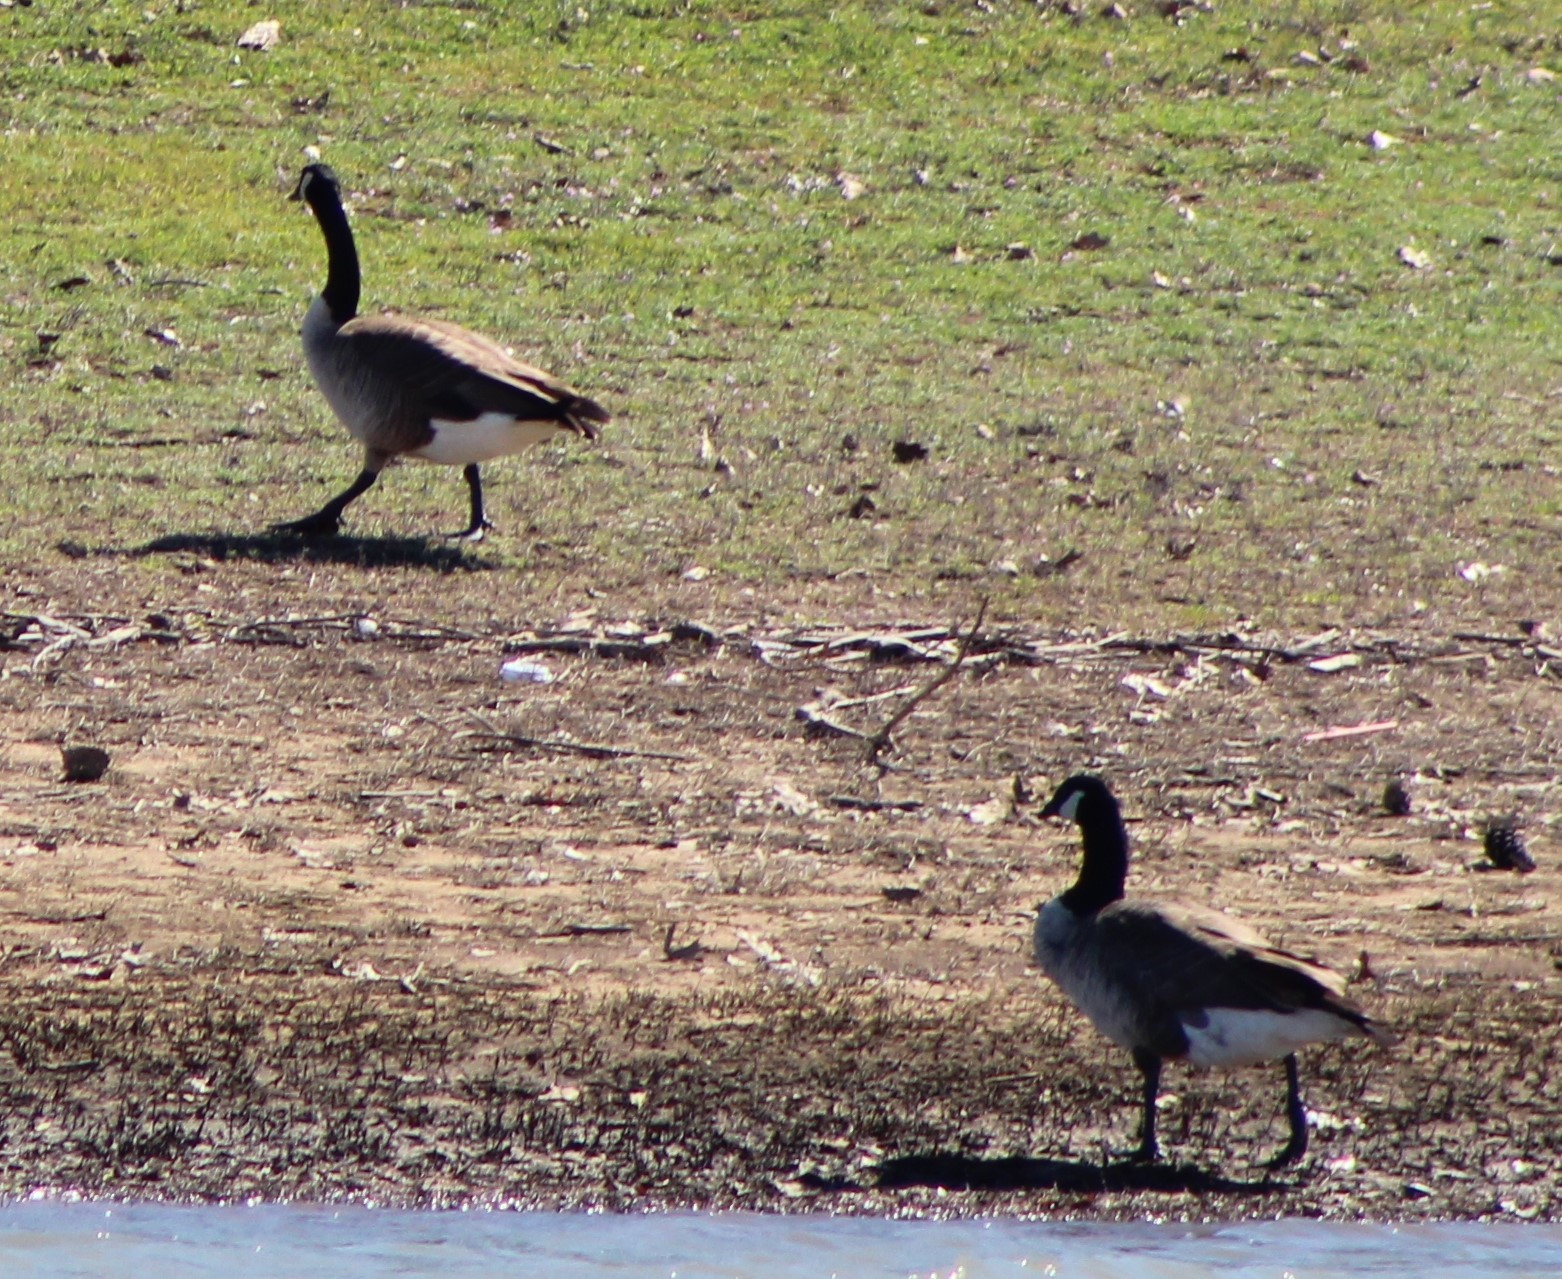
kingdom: Animalia
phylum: Chordata
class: Aves
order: Anseriformes
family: Anatidae
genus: Branta
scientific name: Branta canadensis
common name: Canada goose
